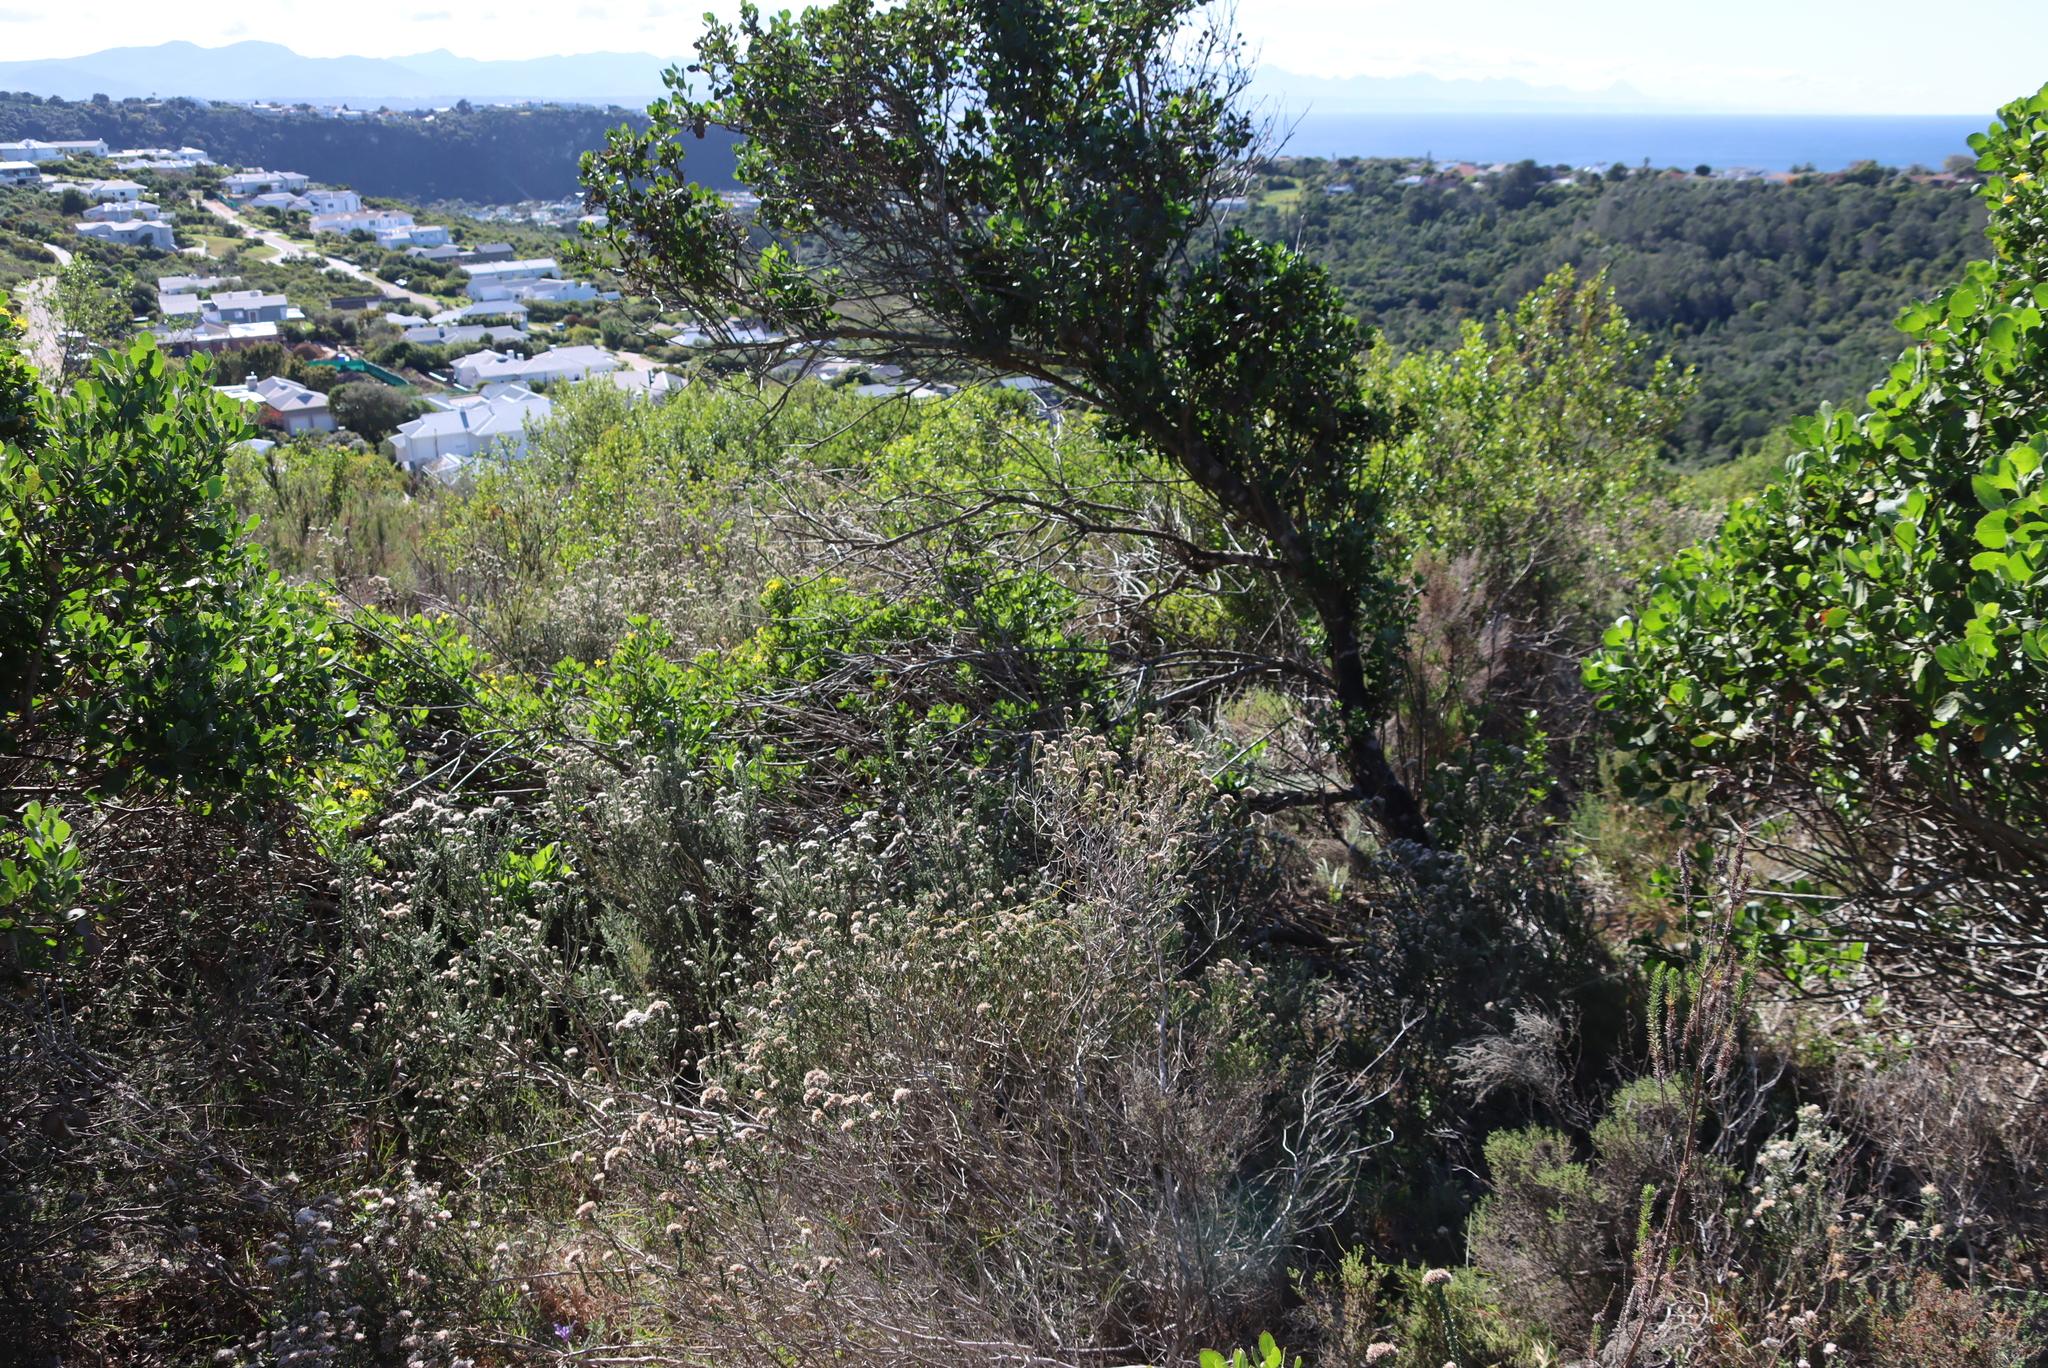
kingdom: Plantae
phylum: Tracheophyta
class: Magnoliopsida
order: Asterales
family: Asteraceae
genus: Osteospermum
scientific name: Osteospermum moniliferum
